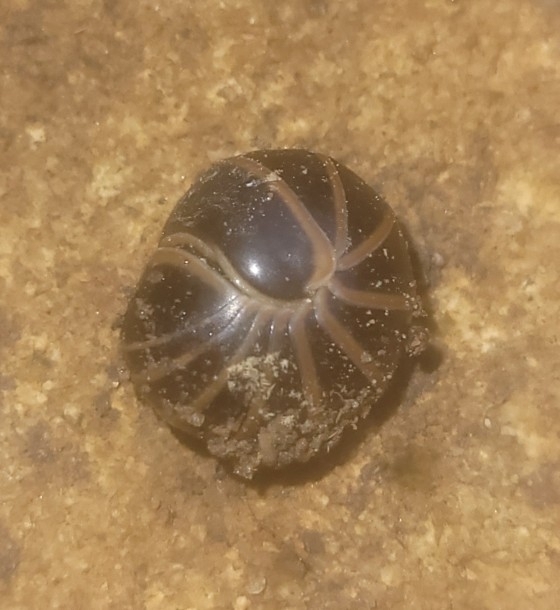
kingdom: Animalia
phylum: Arthropoda
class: Diplopoda
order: Glomerida
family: Glomeridae
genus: Glomeris
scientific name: Glomeris marginata
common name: Bordered pill millipede
